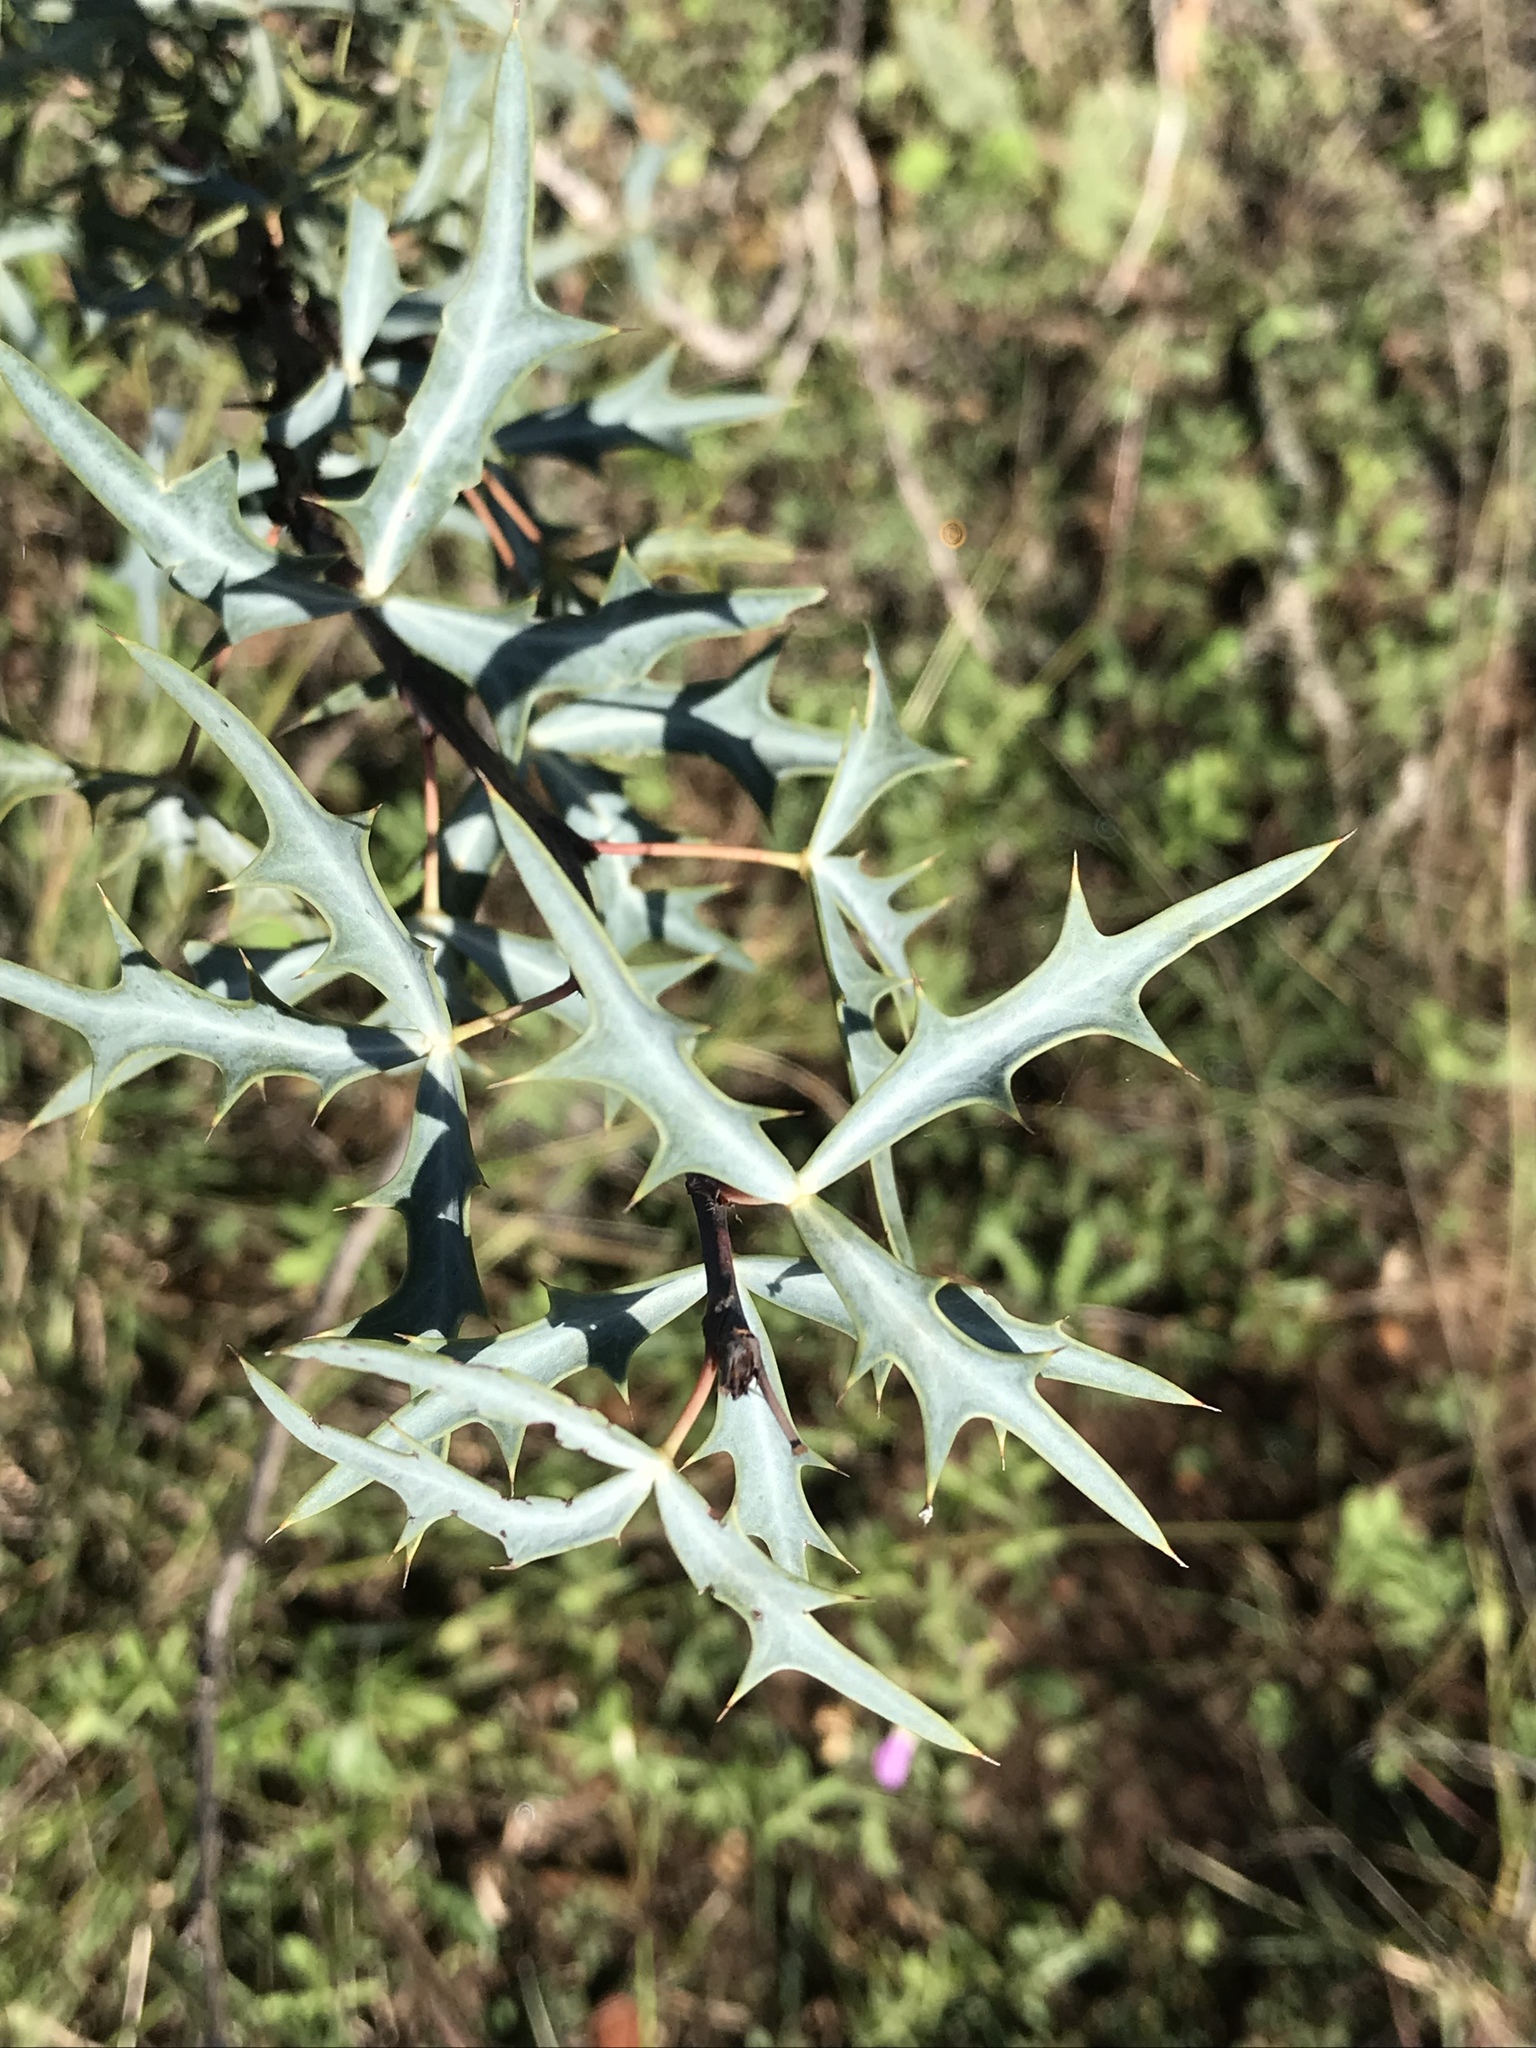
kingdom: Plantae
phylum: Tracheophyta
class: Magnoliopsida
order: Ranunculales
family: Berberidaceae
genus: Alloberberis
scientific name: Alloberberis trifoliolata
